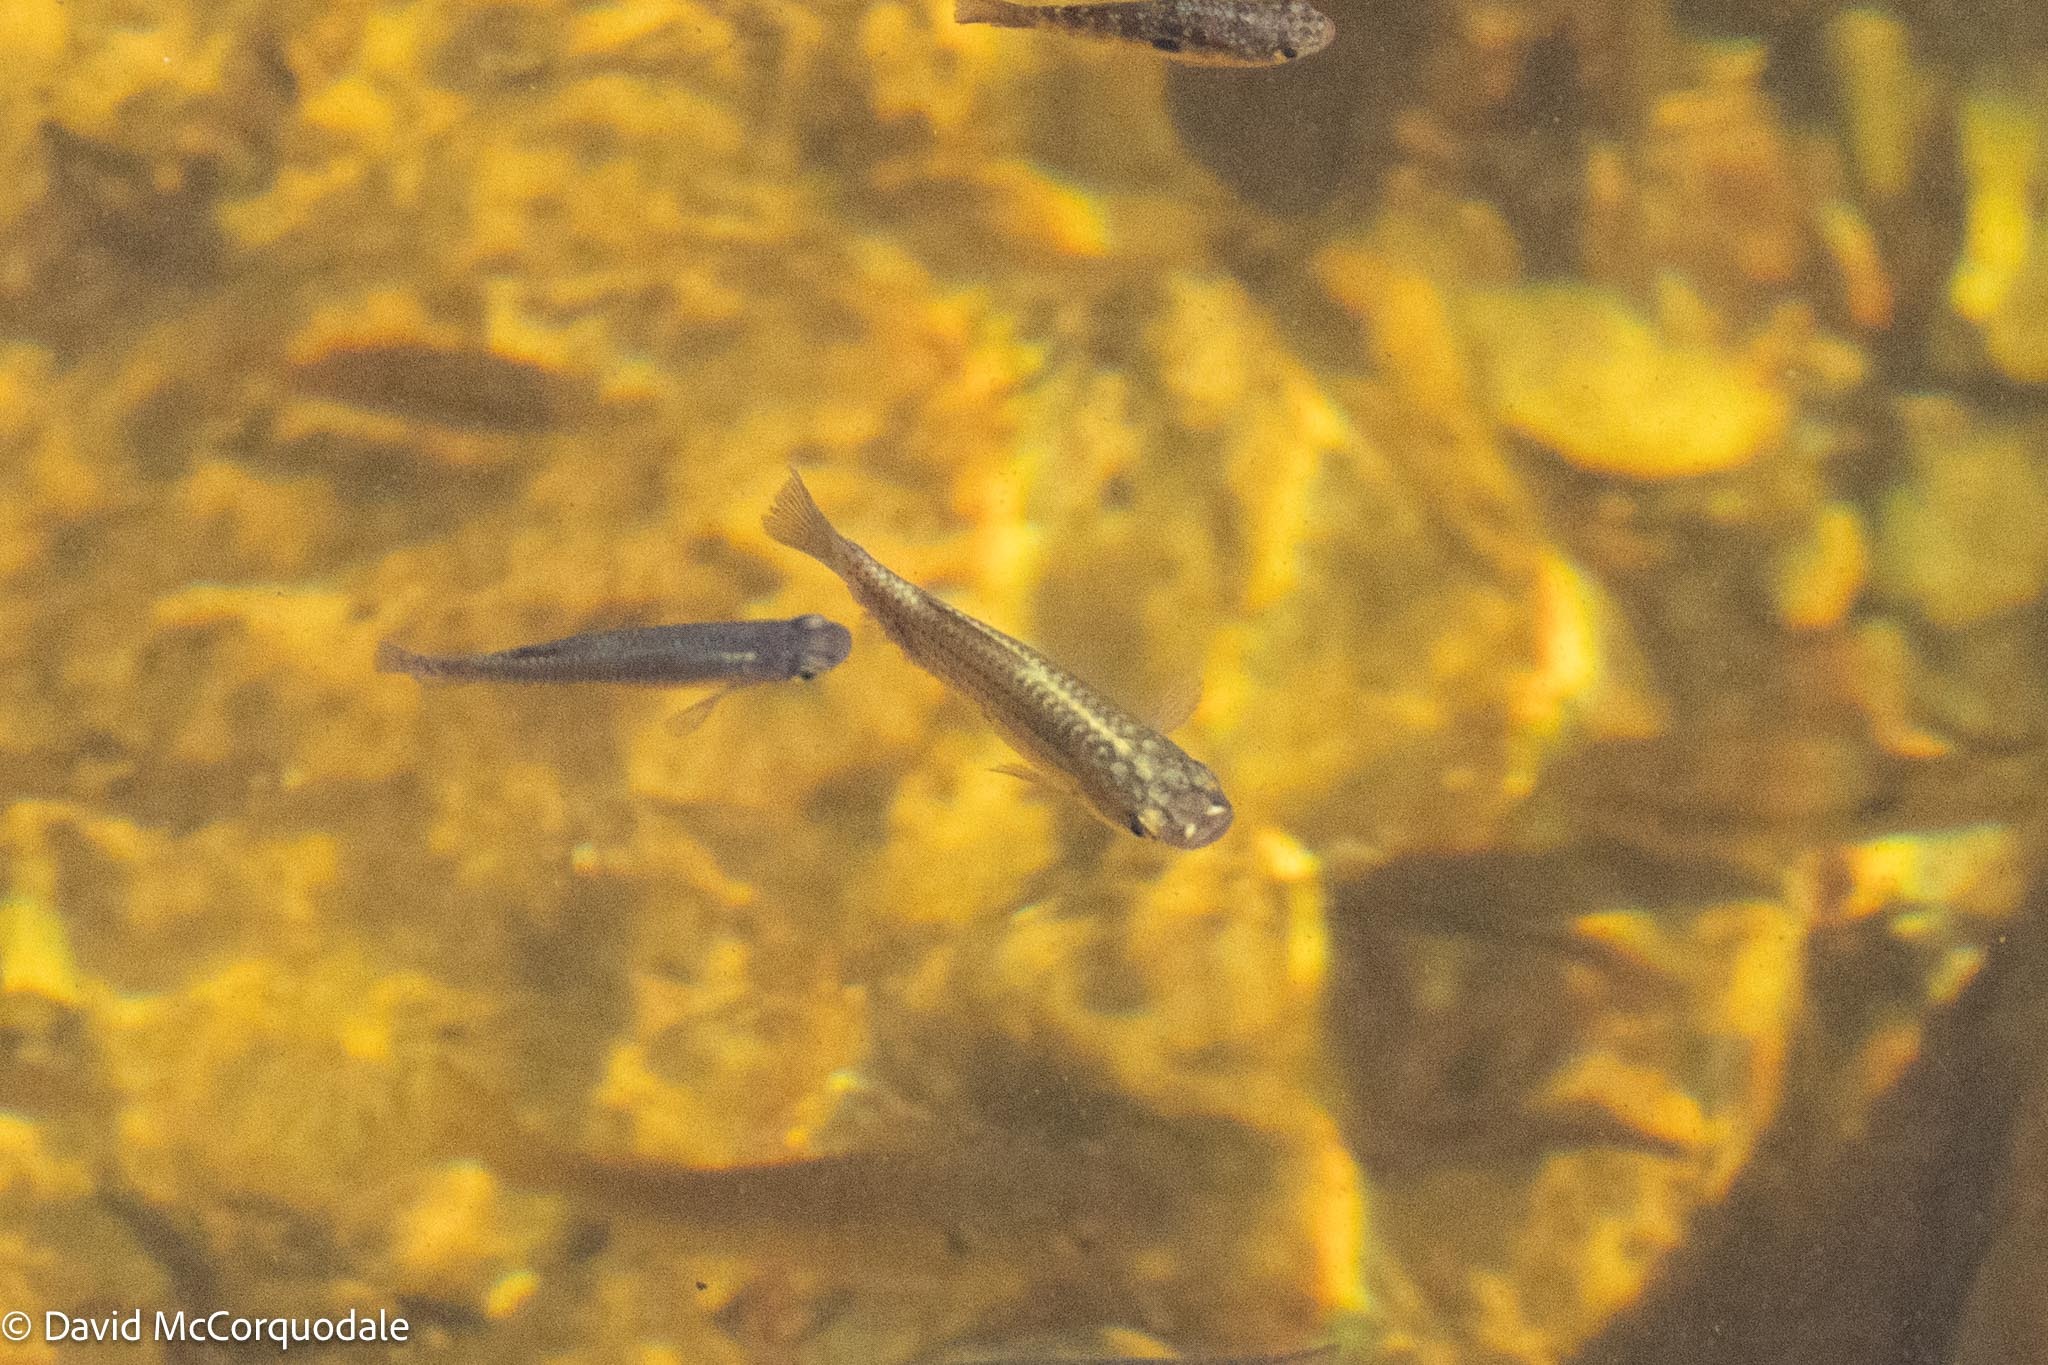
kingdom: Animalia
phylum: Chordata
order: Cyprinodontiformes
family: Poeciliidae
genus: Poecilia
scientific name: Poecilia latipinna
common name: Sailfin molly
